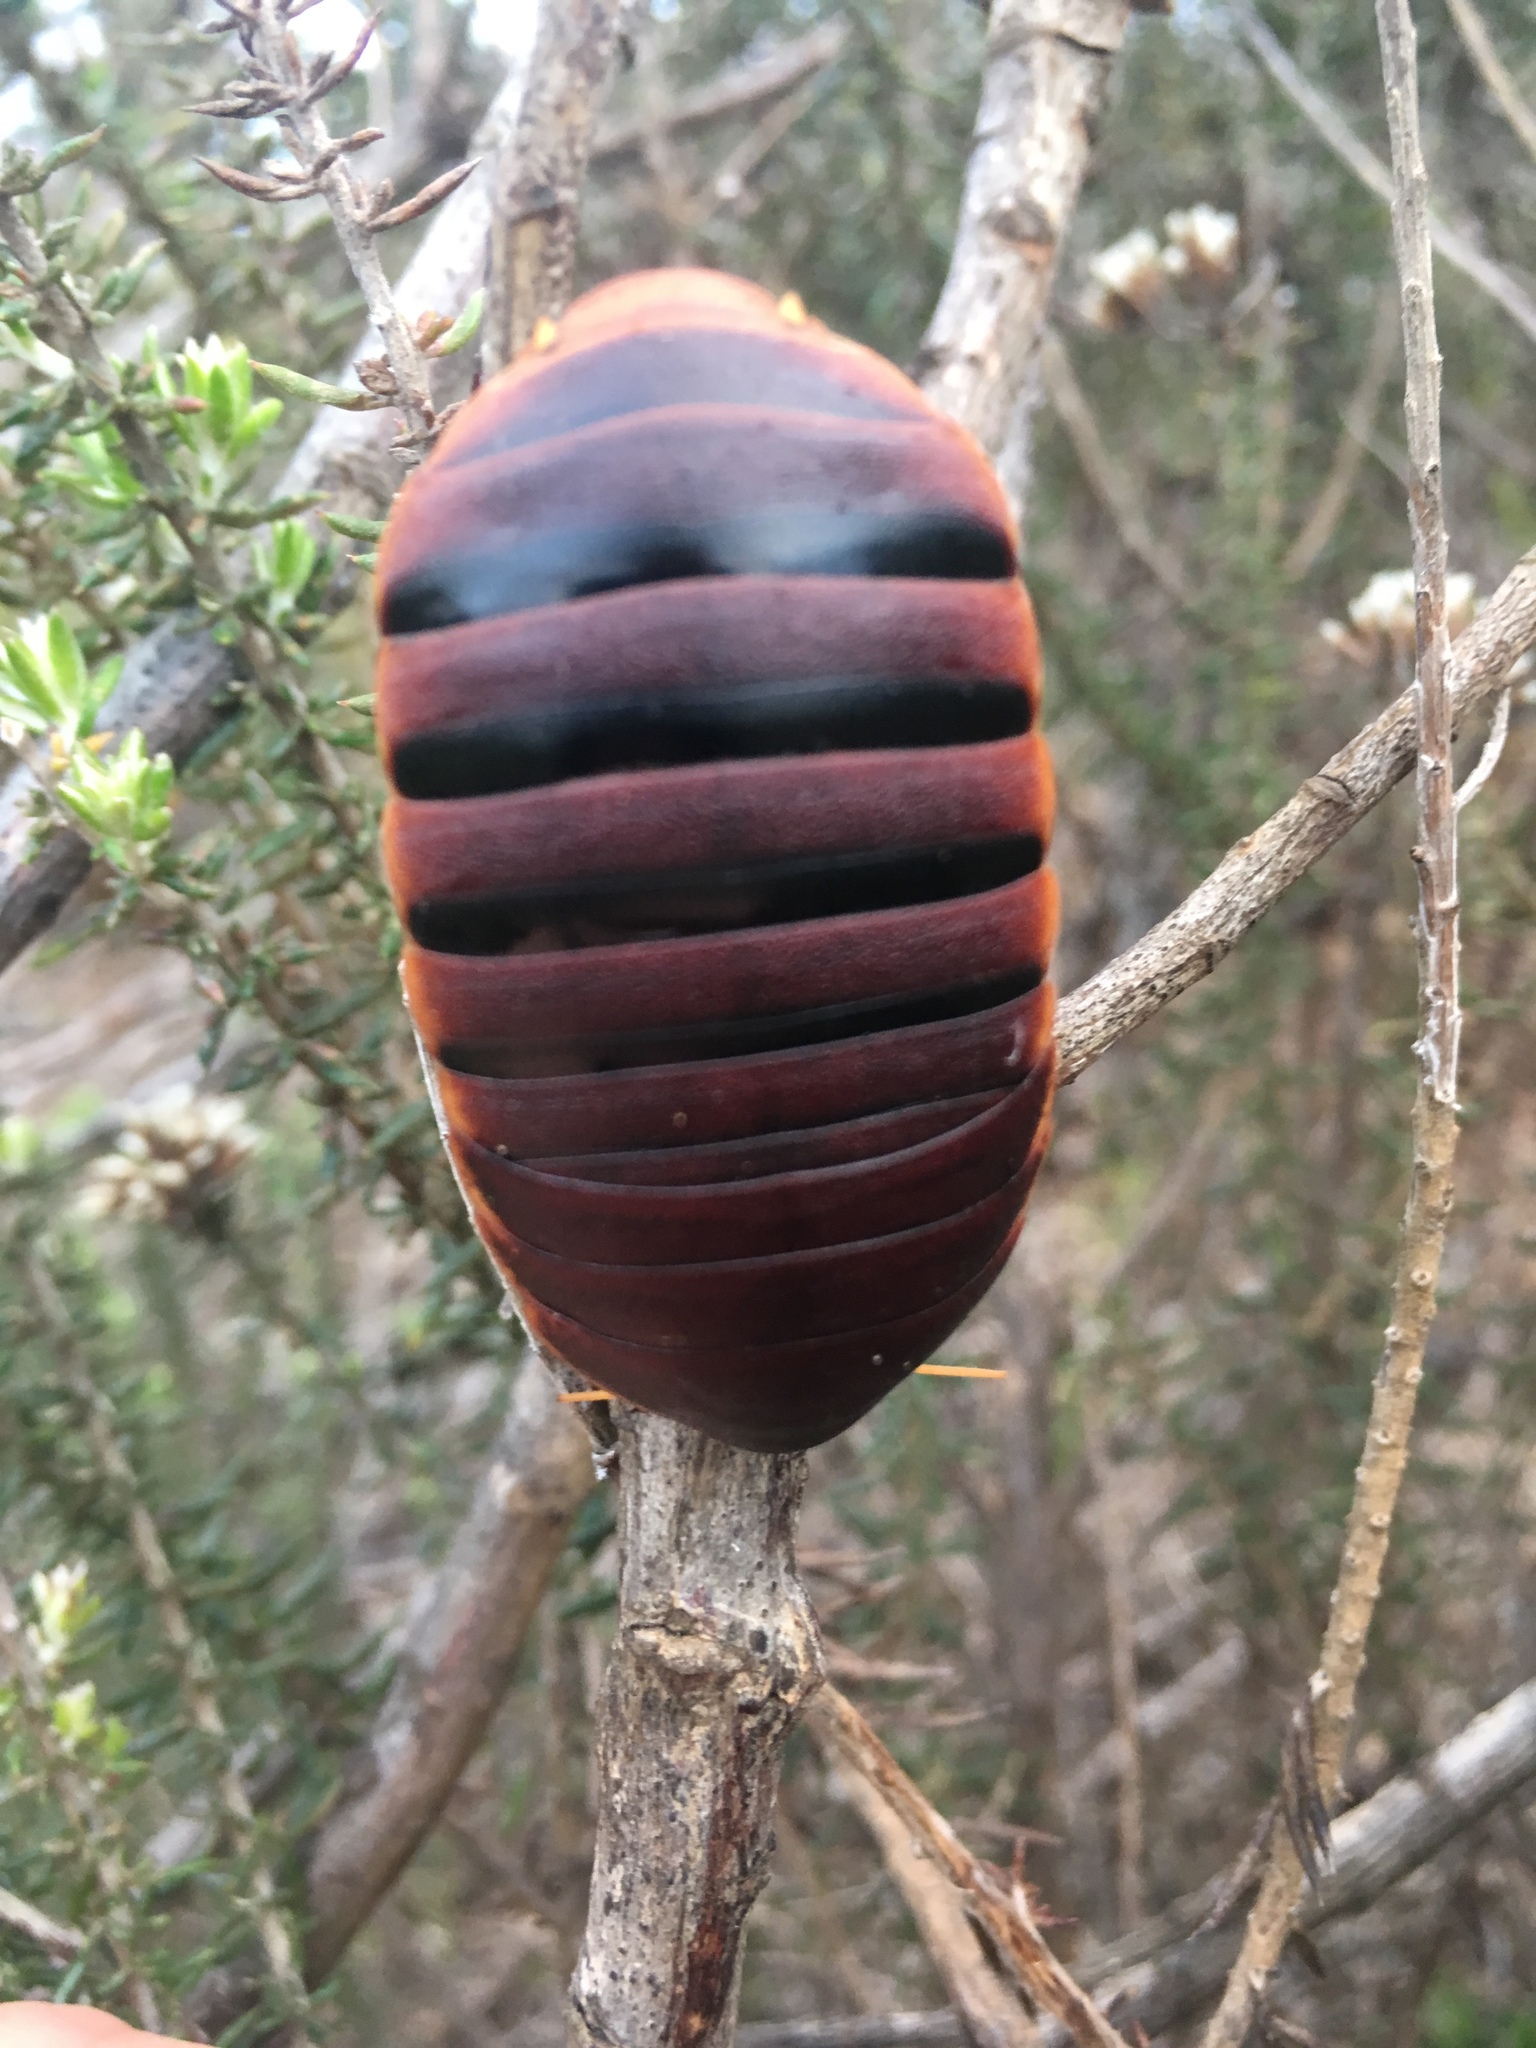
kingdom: Animalia
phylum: Arthropoda
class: Insecta
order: Blattodea
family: Blaberidae
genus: Aptera
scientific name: Aptera fusca
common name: Cape mountain cockroach
